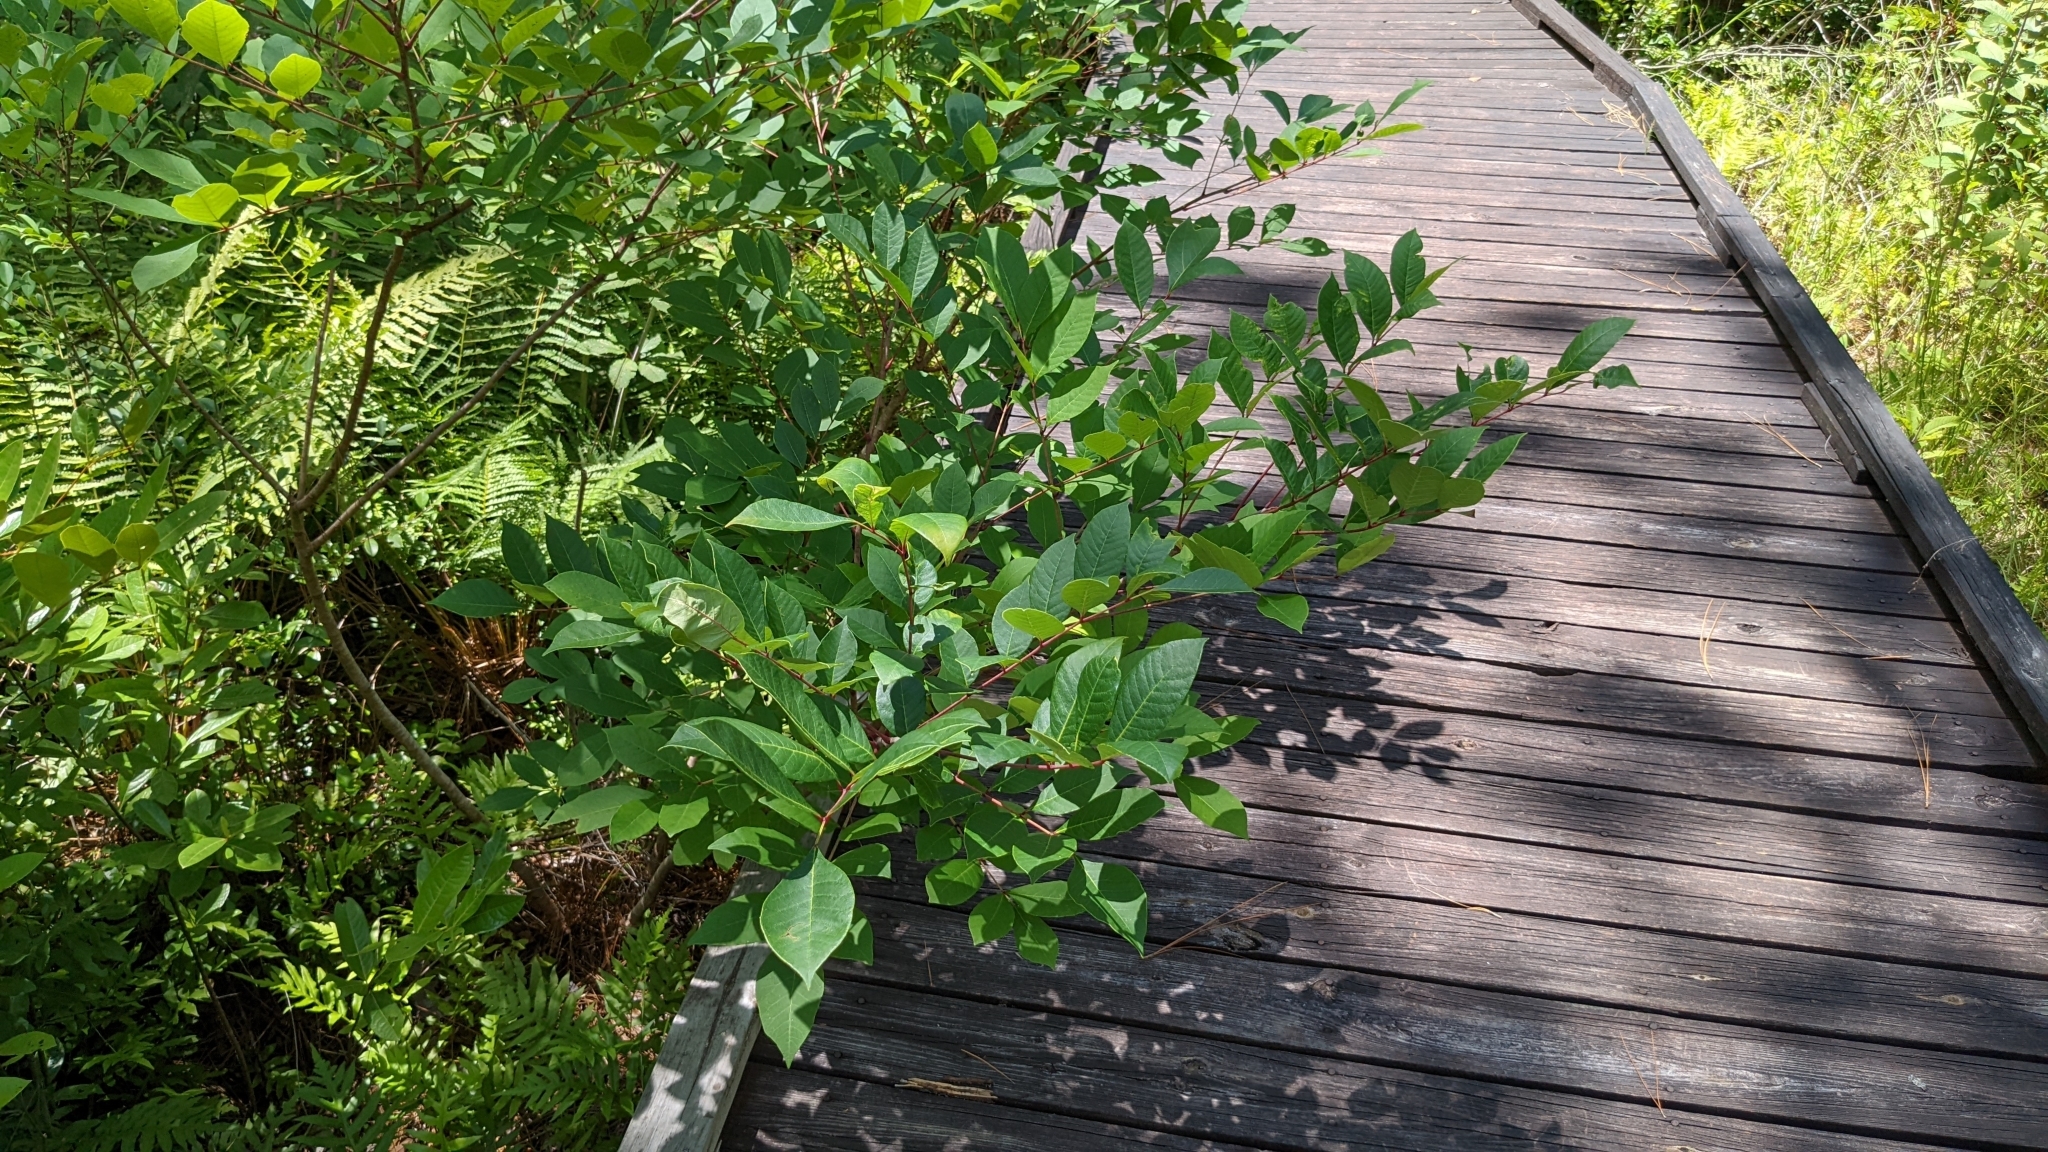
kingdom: Plantae
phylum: Tracheophyta
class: Magnoliopsida
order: Sapindales
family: Anacardiaceae
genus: Toxicodendron
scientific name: Toxicodendron vernix
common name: Poison sumac
